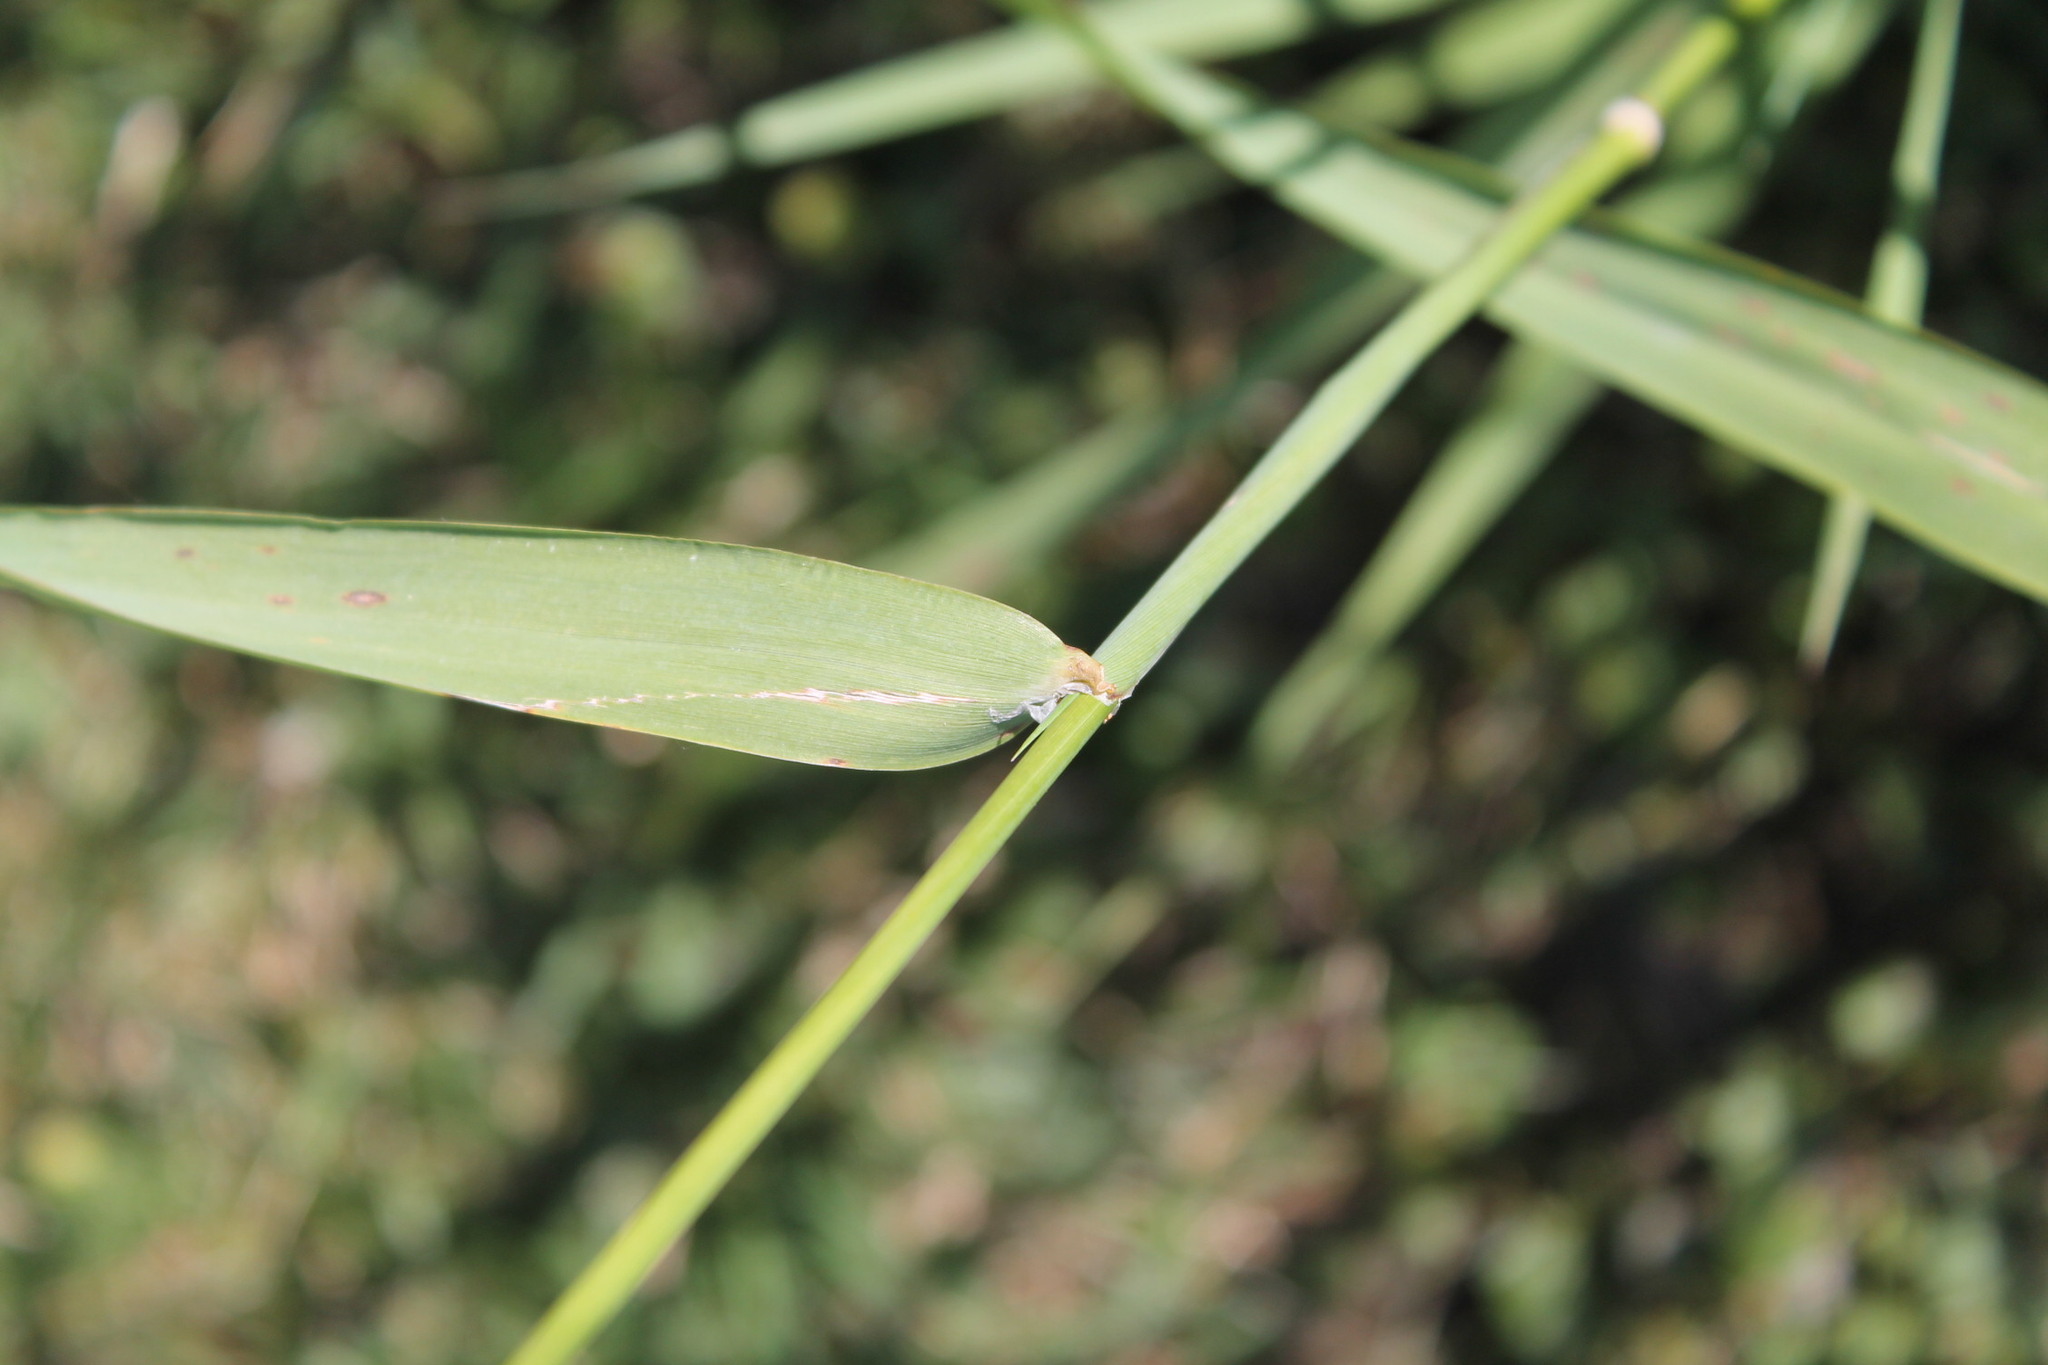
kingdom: Plantae
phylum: Tracheophyta
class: Liliopsida
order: Poales
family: Poaceae
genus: Phalaris
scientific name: Phalaris arundinacea
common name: Reed canary-grass
